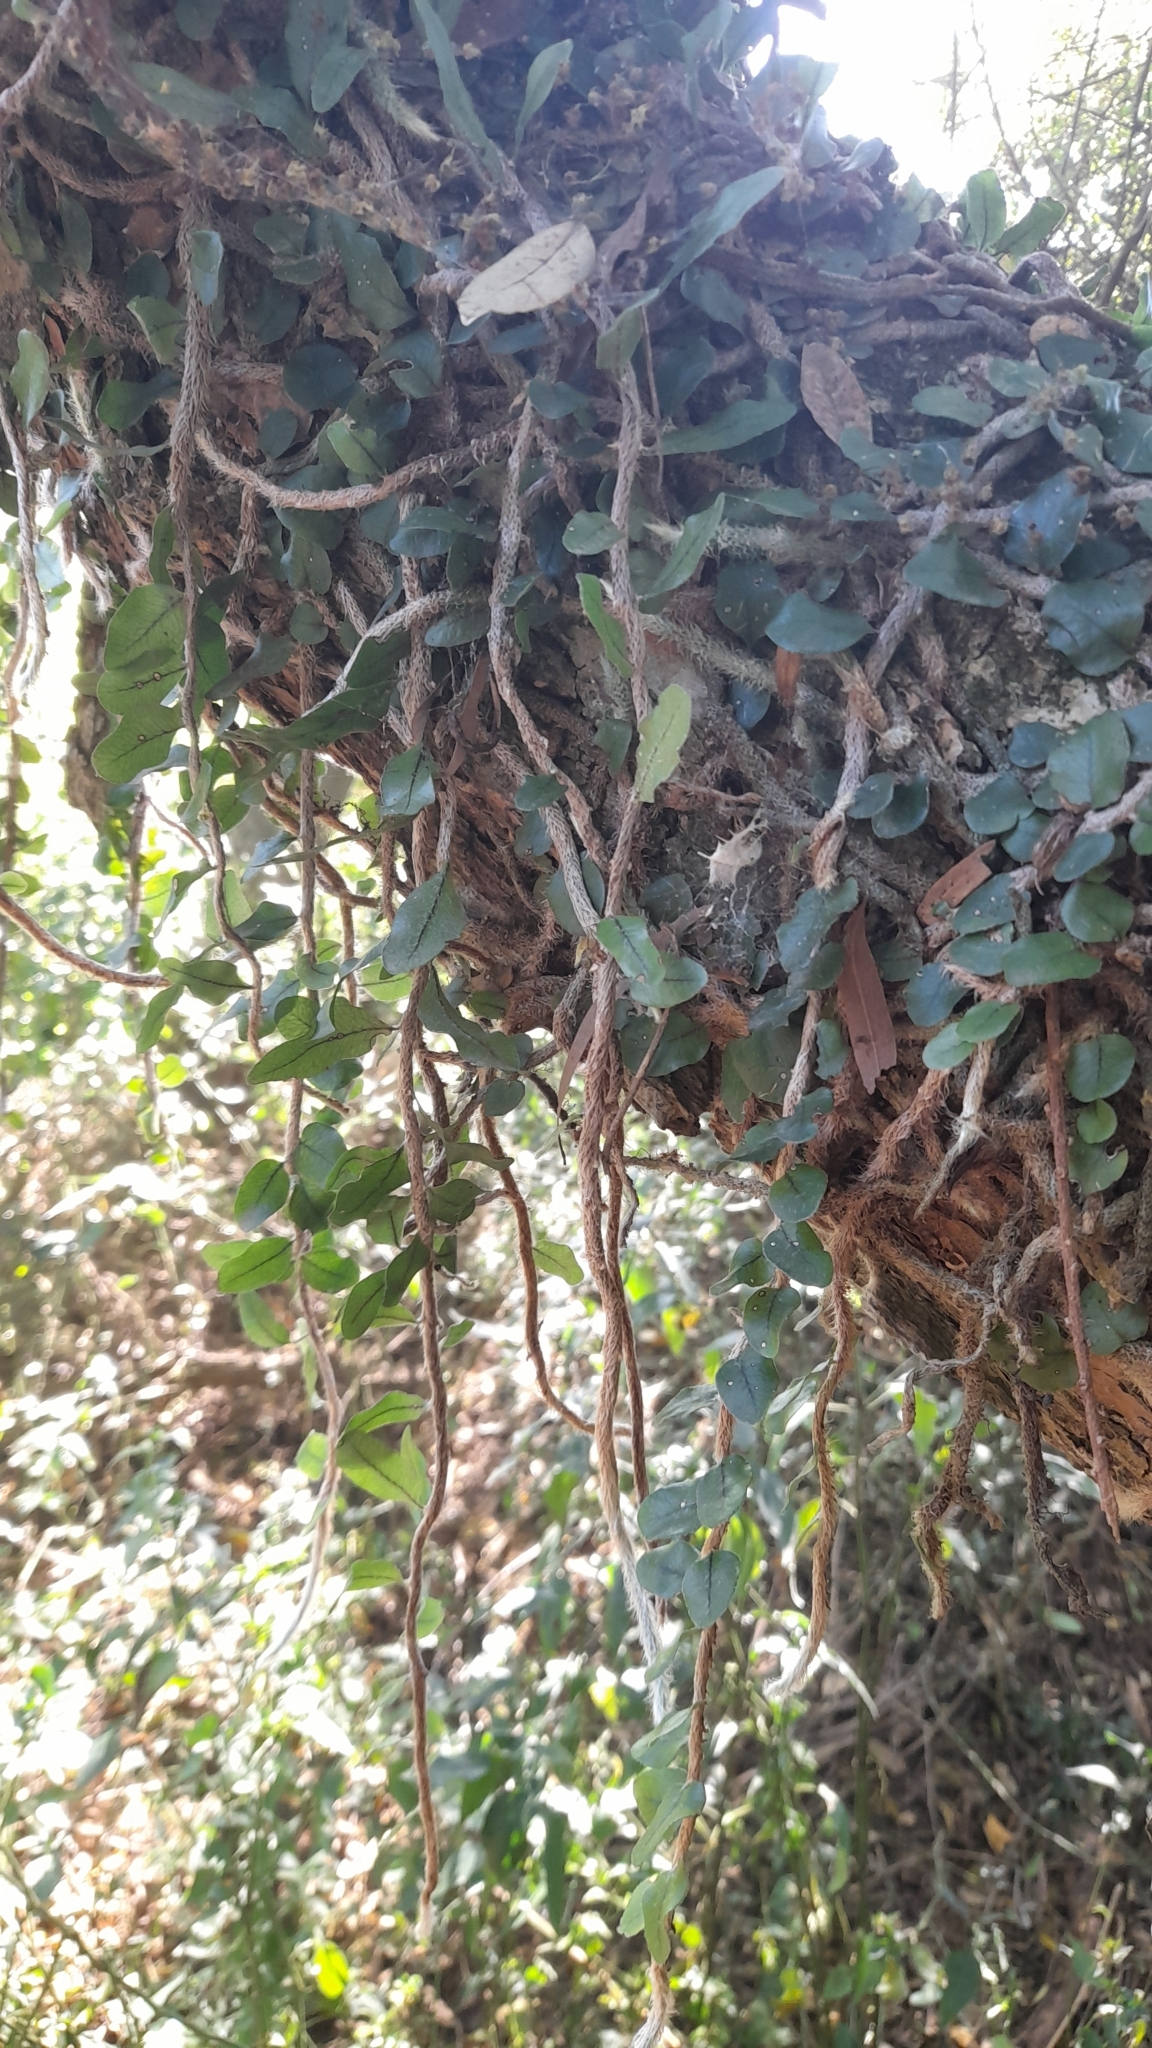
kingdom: Plantae
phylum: Tracheophyta
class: Polypodiopsida
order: Polypodiales
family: Polypodiaceae
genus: Microgramma
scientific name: Microgramma mortoniana
